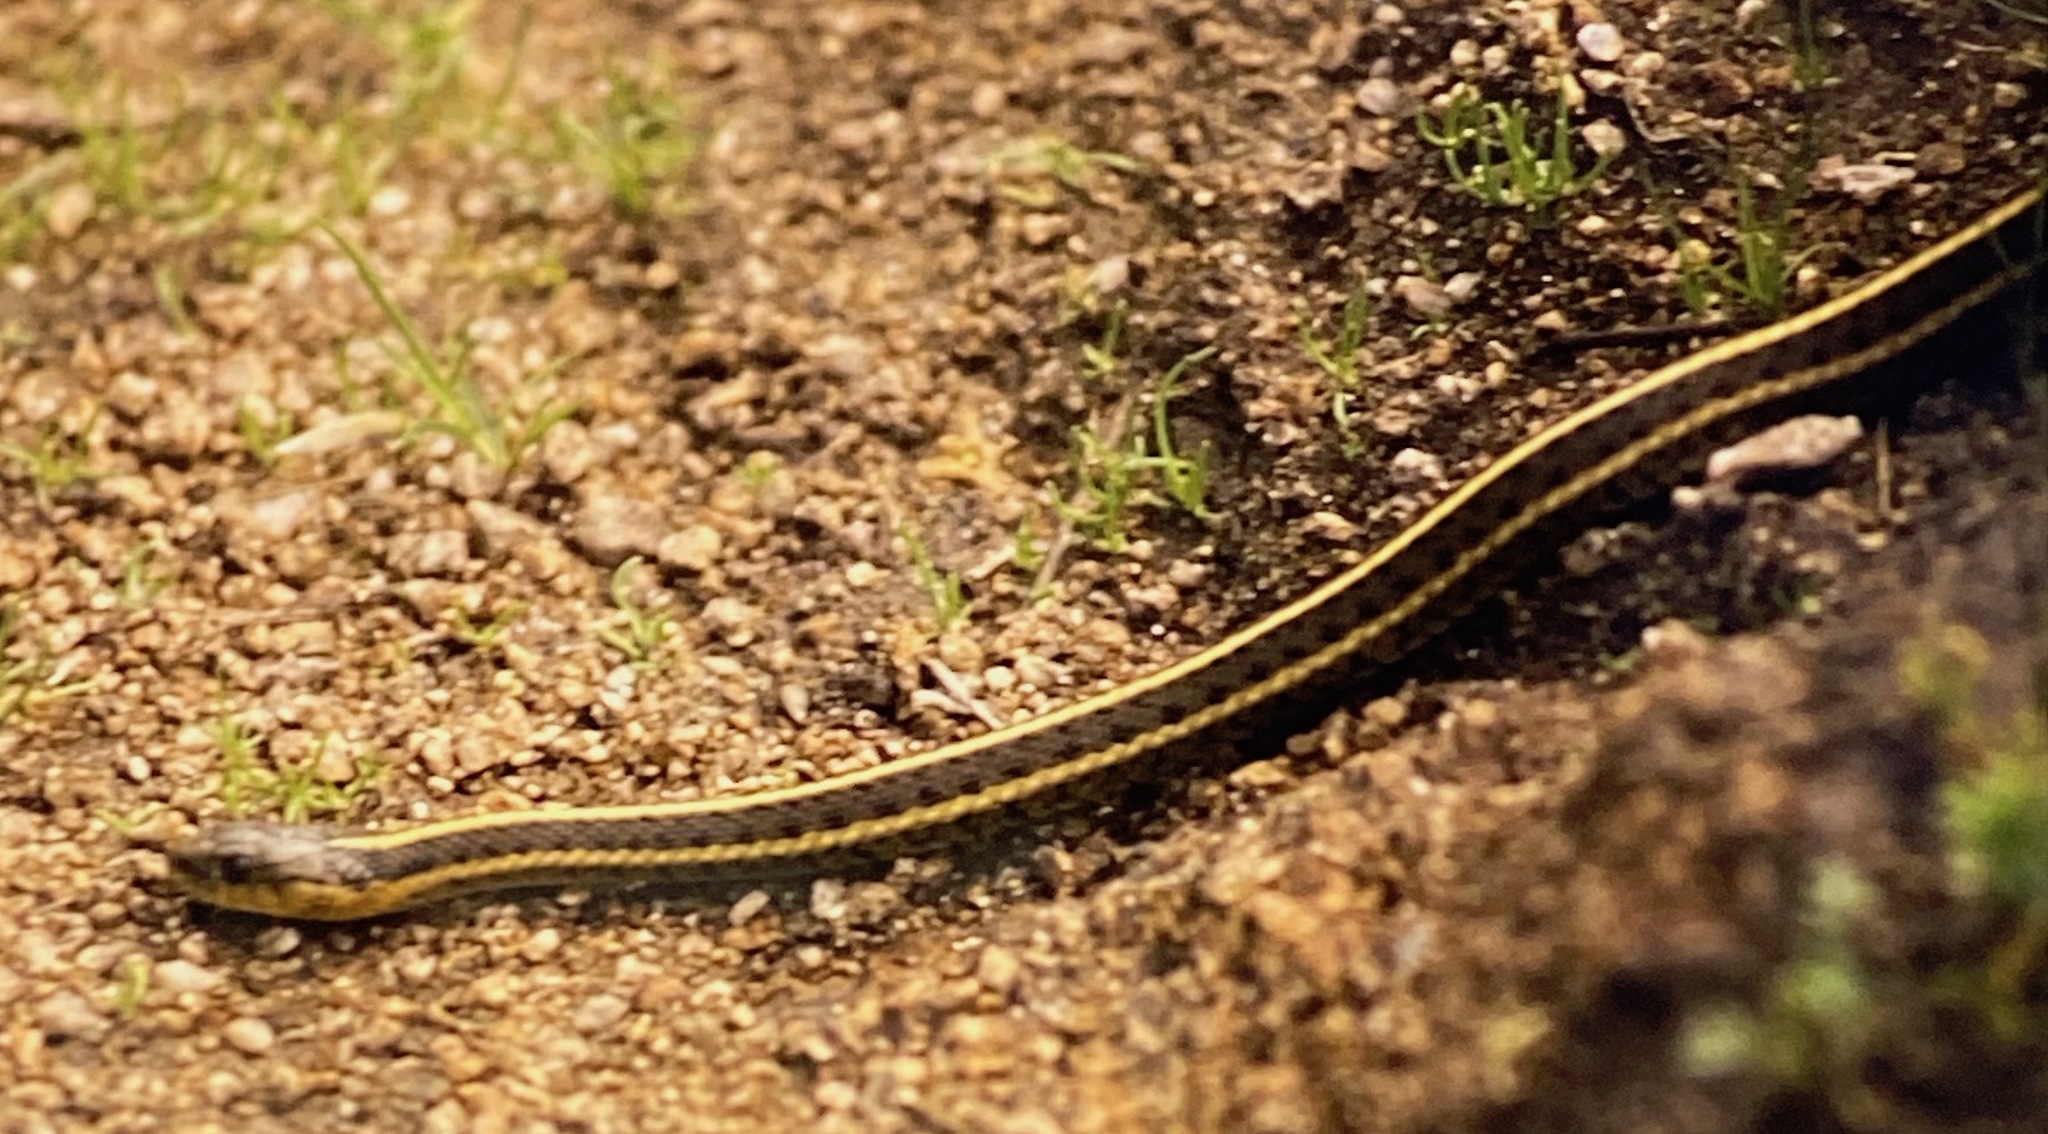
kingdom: Animalia
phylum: Chordata
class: Squamata
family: Colubridae
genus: Thamnophis
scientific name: Thamnophis elegans
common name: Western terrestrial garter snake
